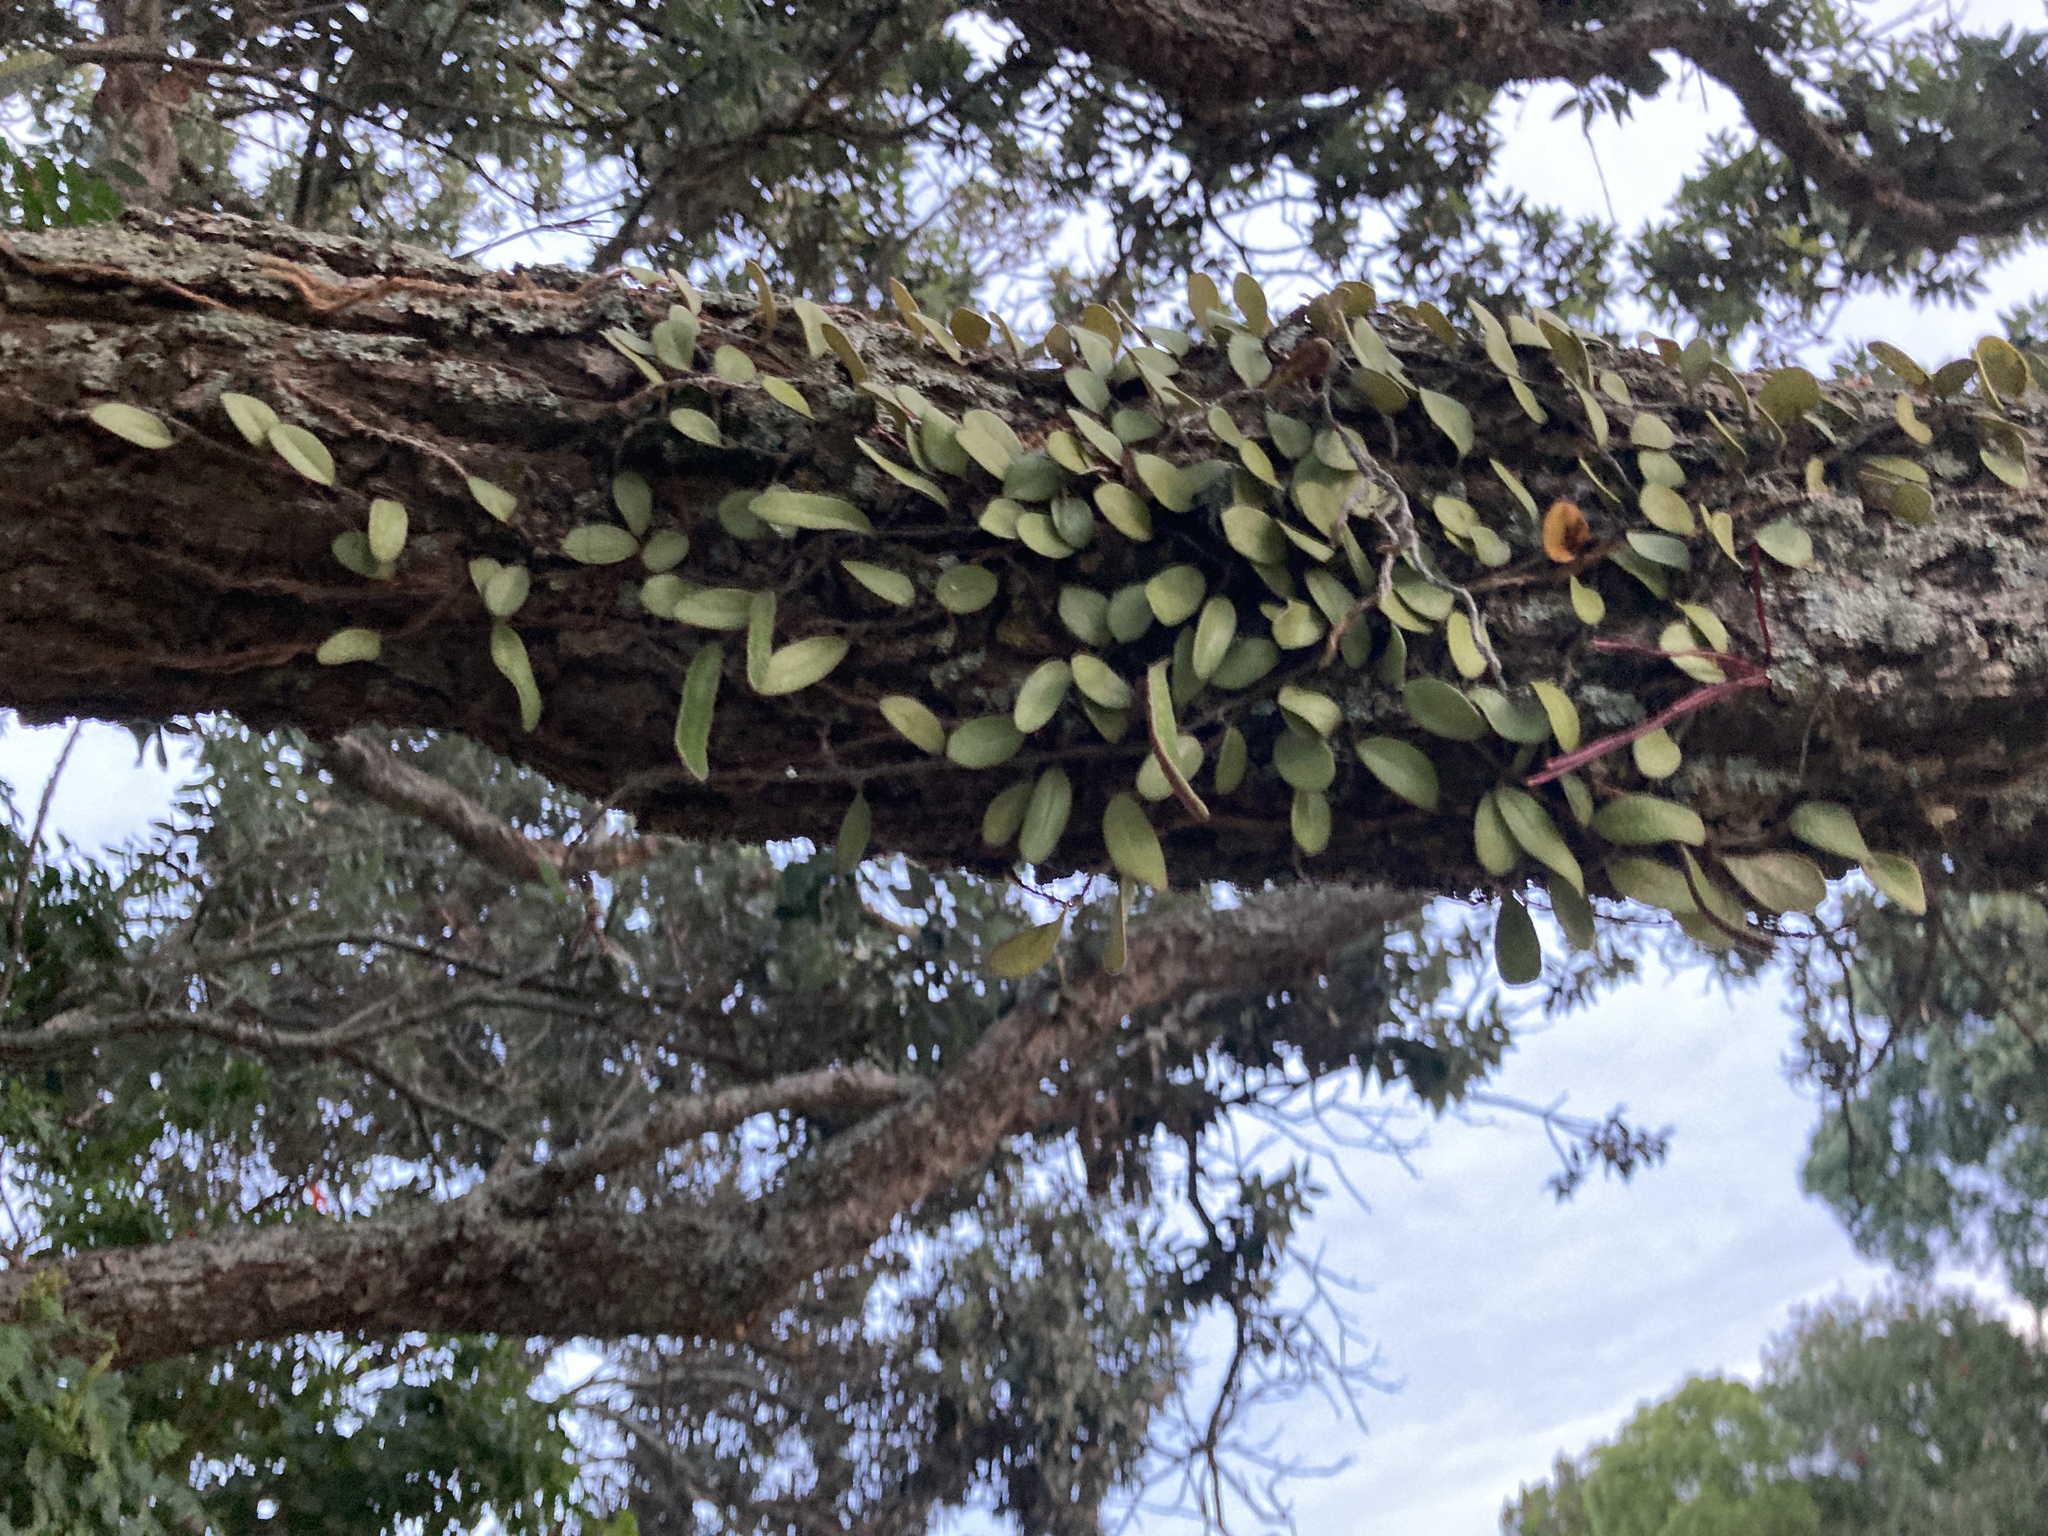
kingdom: Plantae
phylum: Tracheophyta
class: Polypodiopsida
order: Polypodiales
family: Polypodiaceae
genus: Pyrrosia
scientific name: Pyrrosia eleagnifolia
